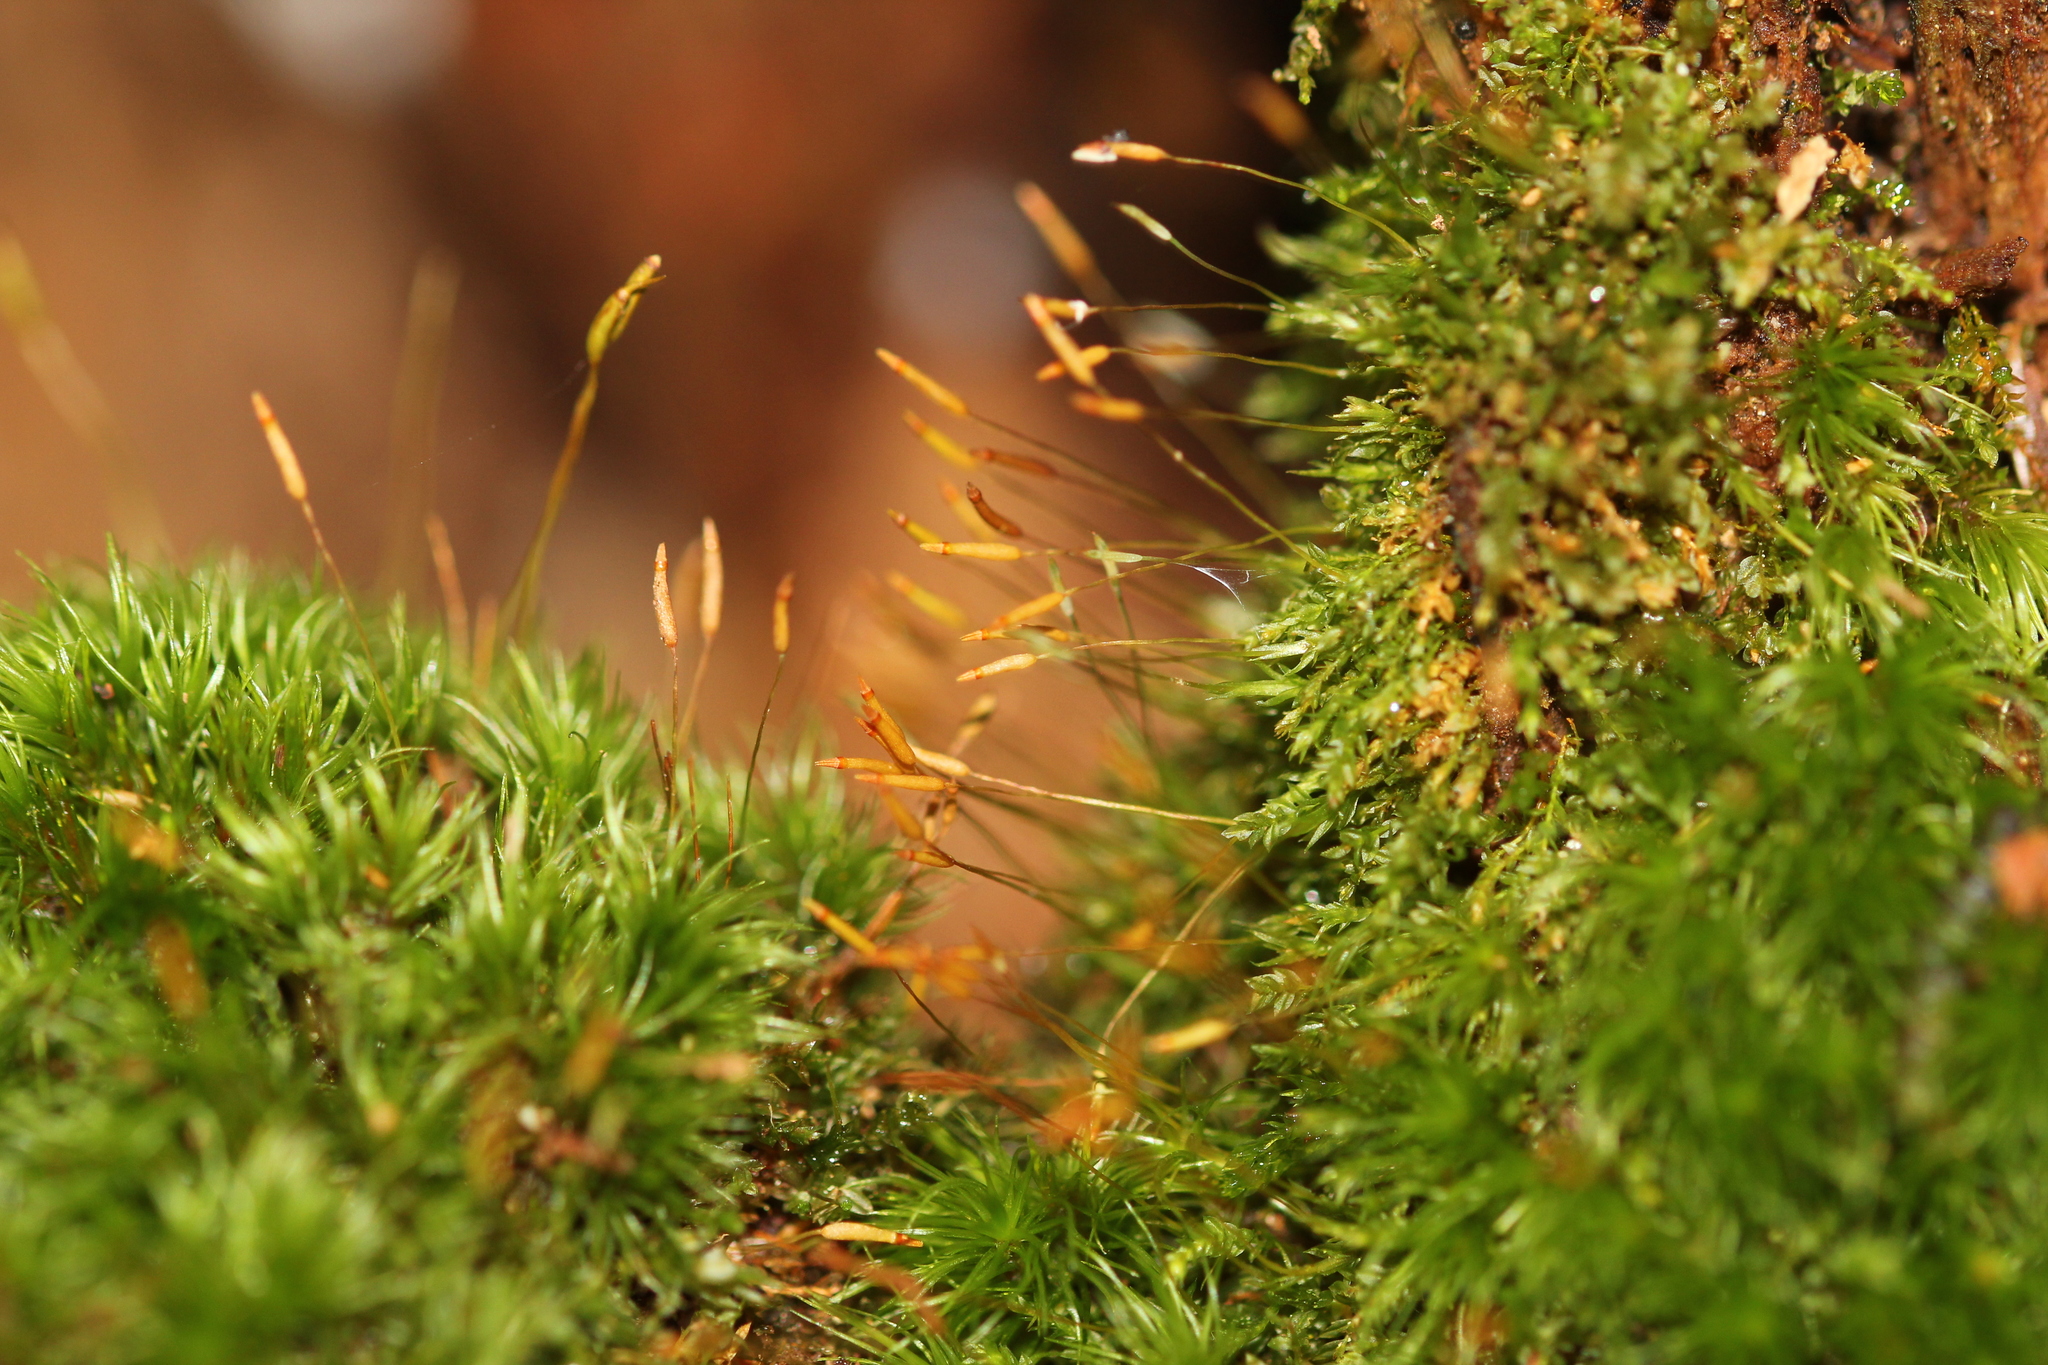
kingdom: Plantae
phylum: Bryophyta
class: Polytrichopsida
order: Tetraphidales
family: Tetraphidaceae
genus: Tetraphis
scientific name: Tetraphis pellucida
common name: Common four-toothed moss
